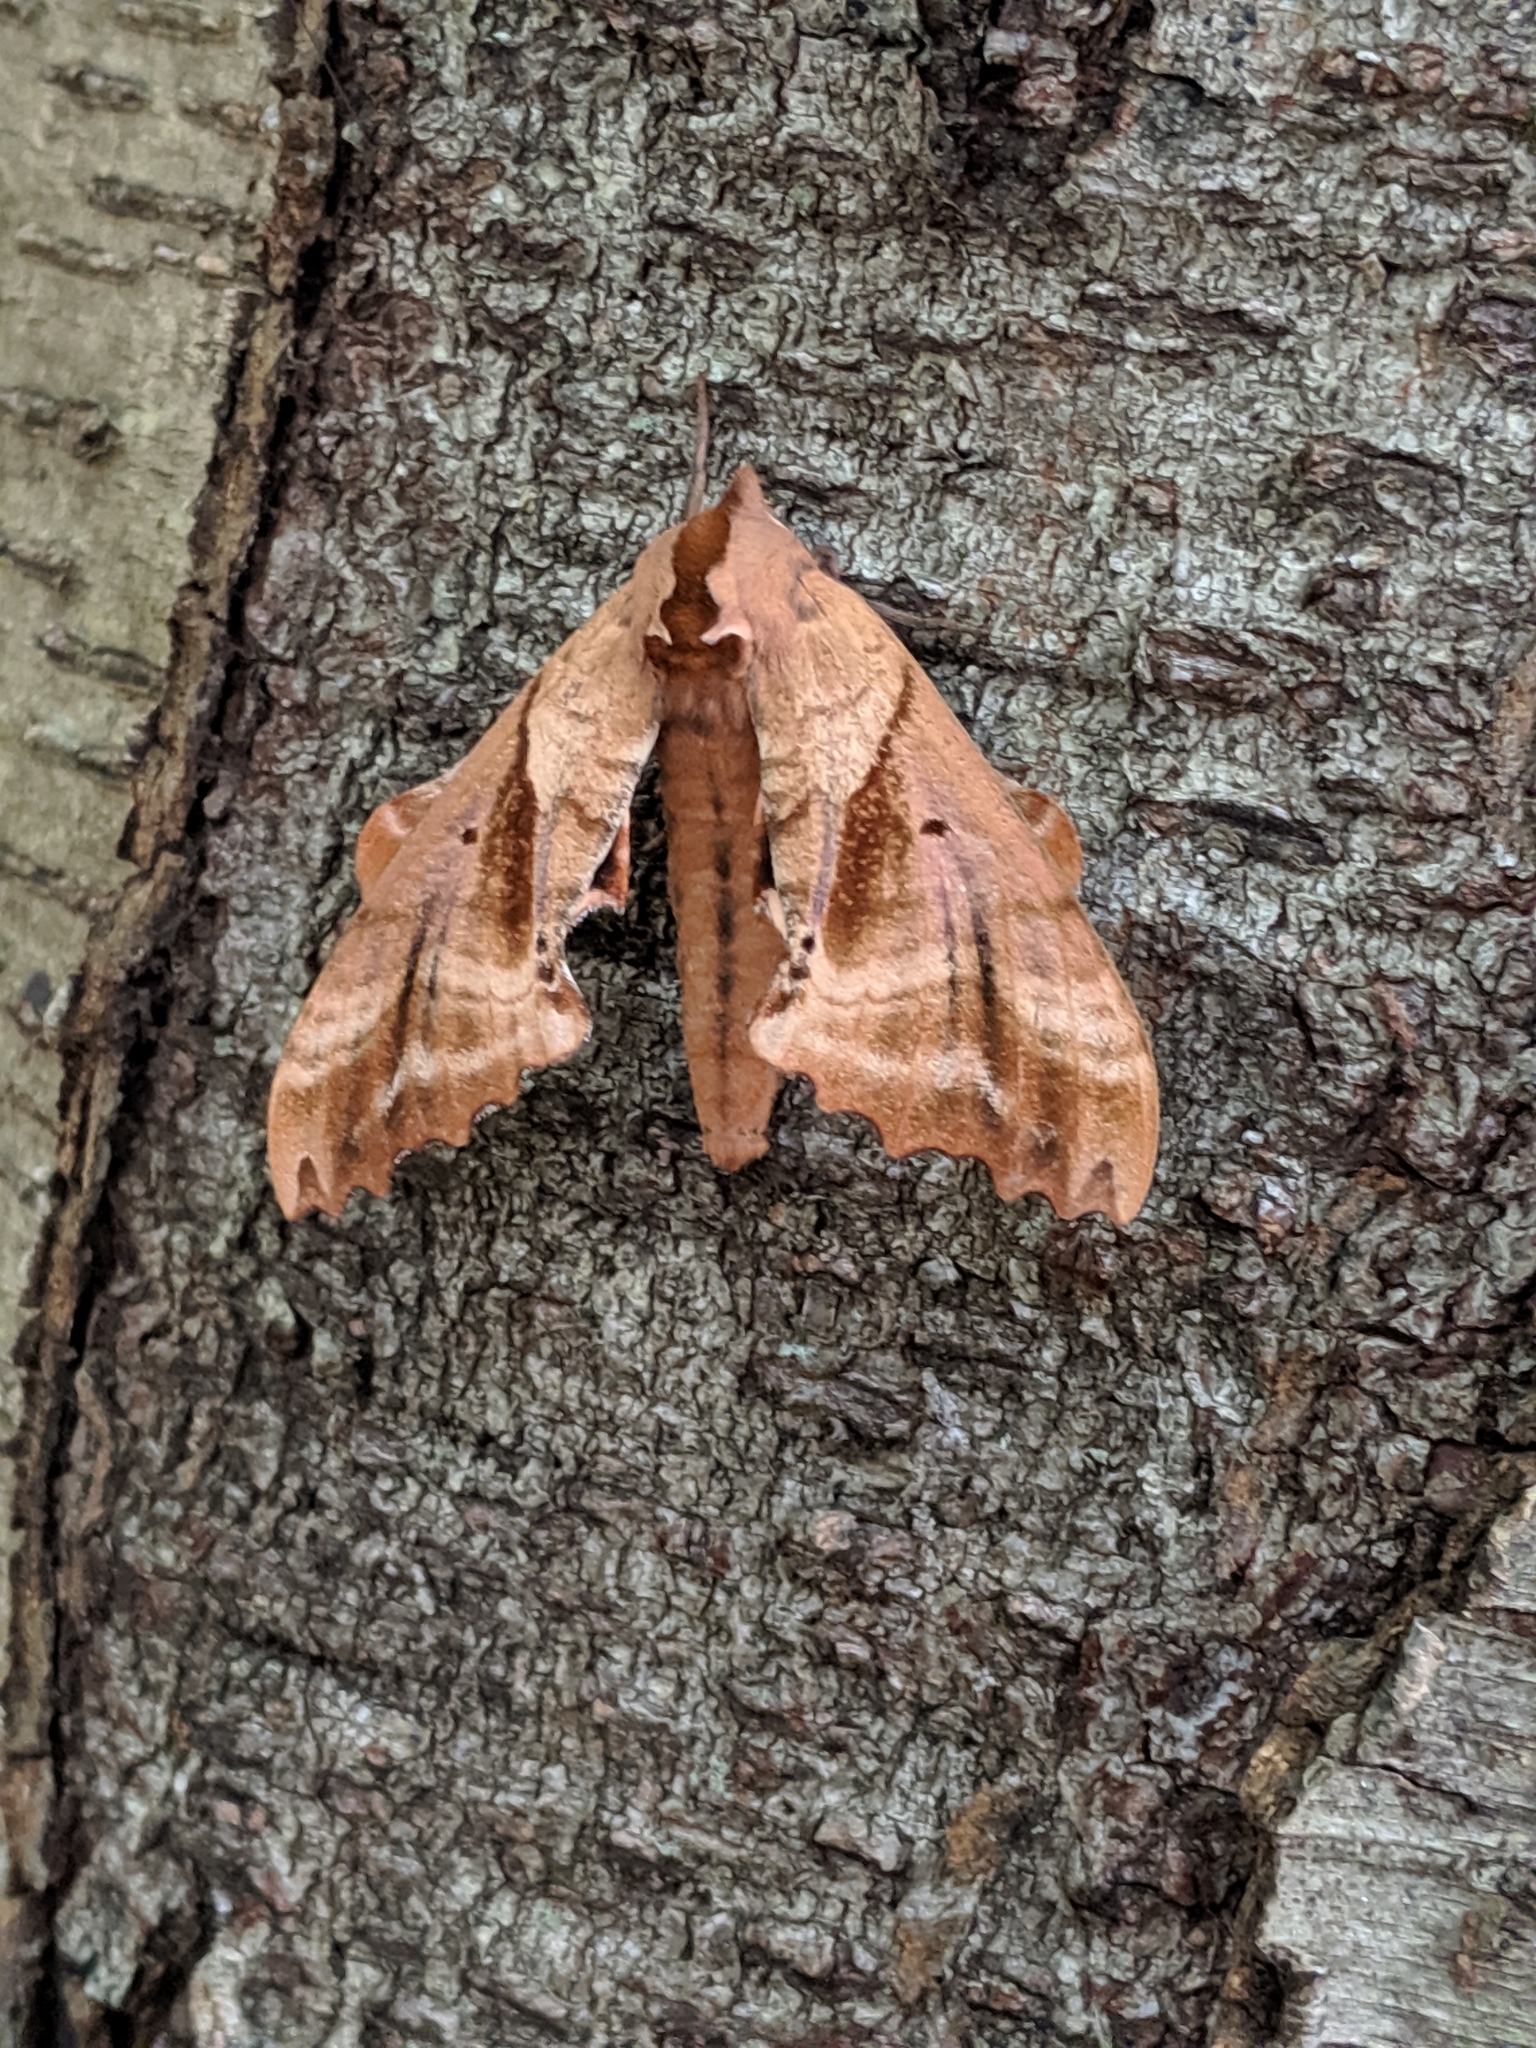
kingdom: Animalia
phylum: Arthropoda
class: Insecta
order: Lepidoptera
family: Sphingidae
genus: Paonias
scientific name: Paonias excaecata
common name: Blind-eyed sphinx
